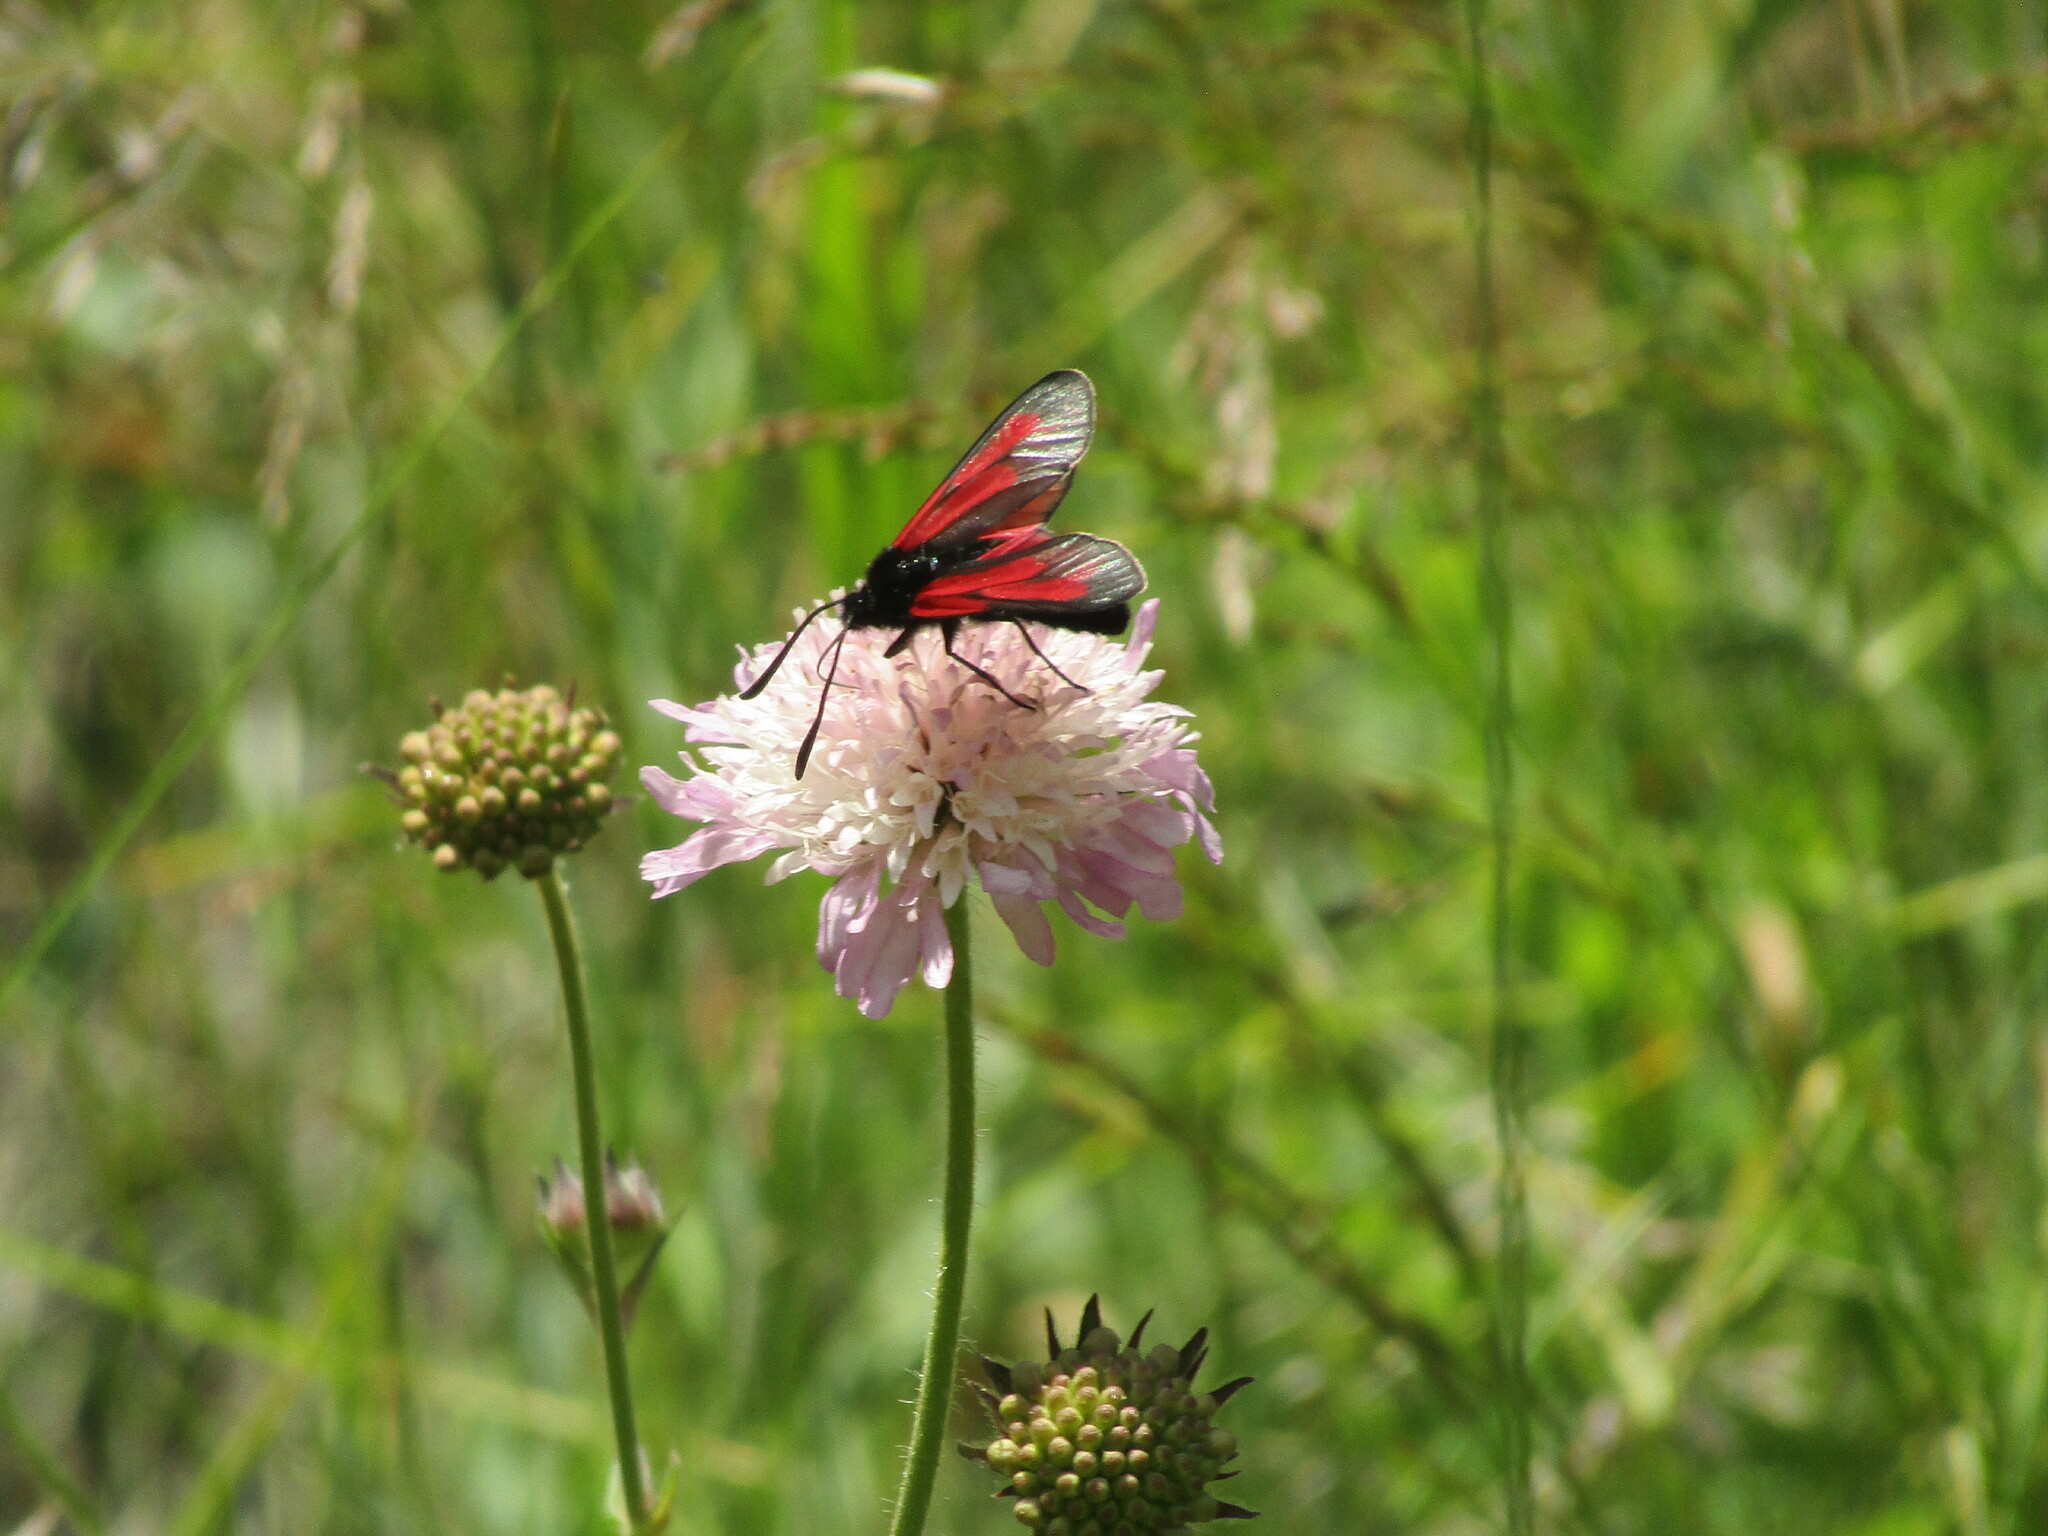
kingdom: Animalia
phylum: Arthropoda
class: Insecta
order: Lepidoptera
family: Zygaenidae
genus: Zygaena
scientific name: Zygaena
